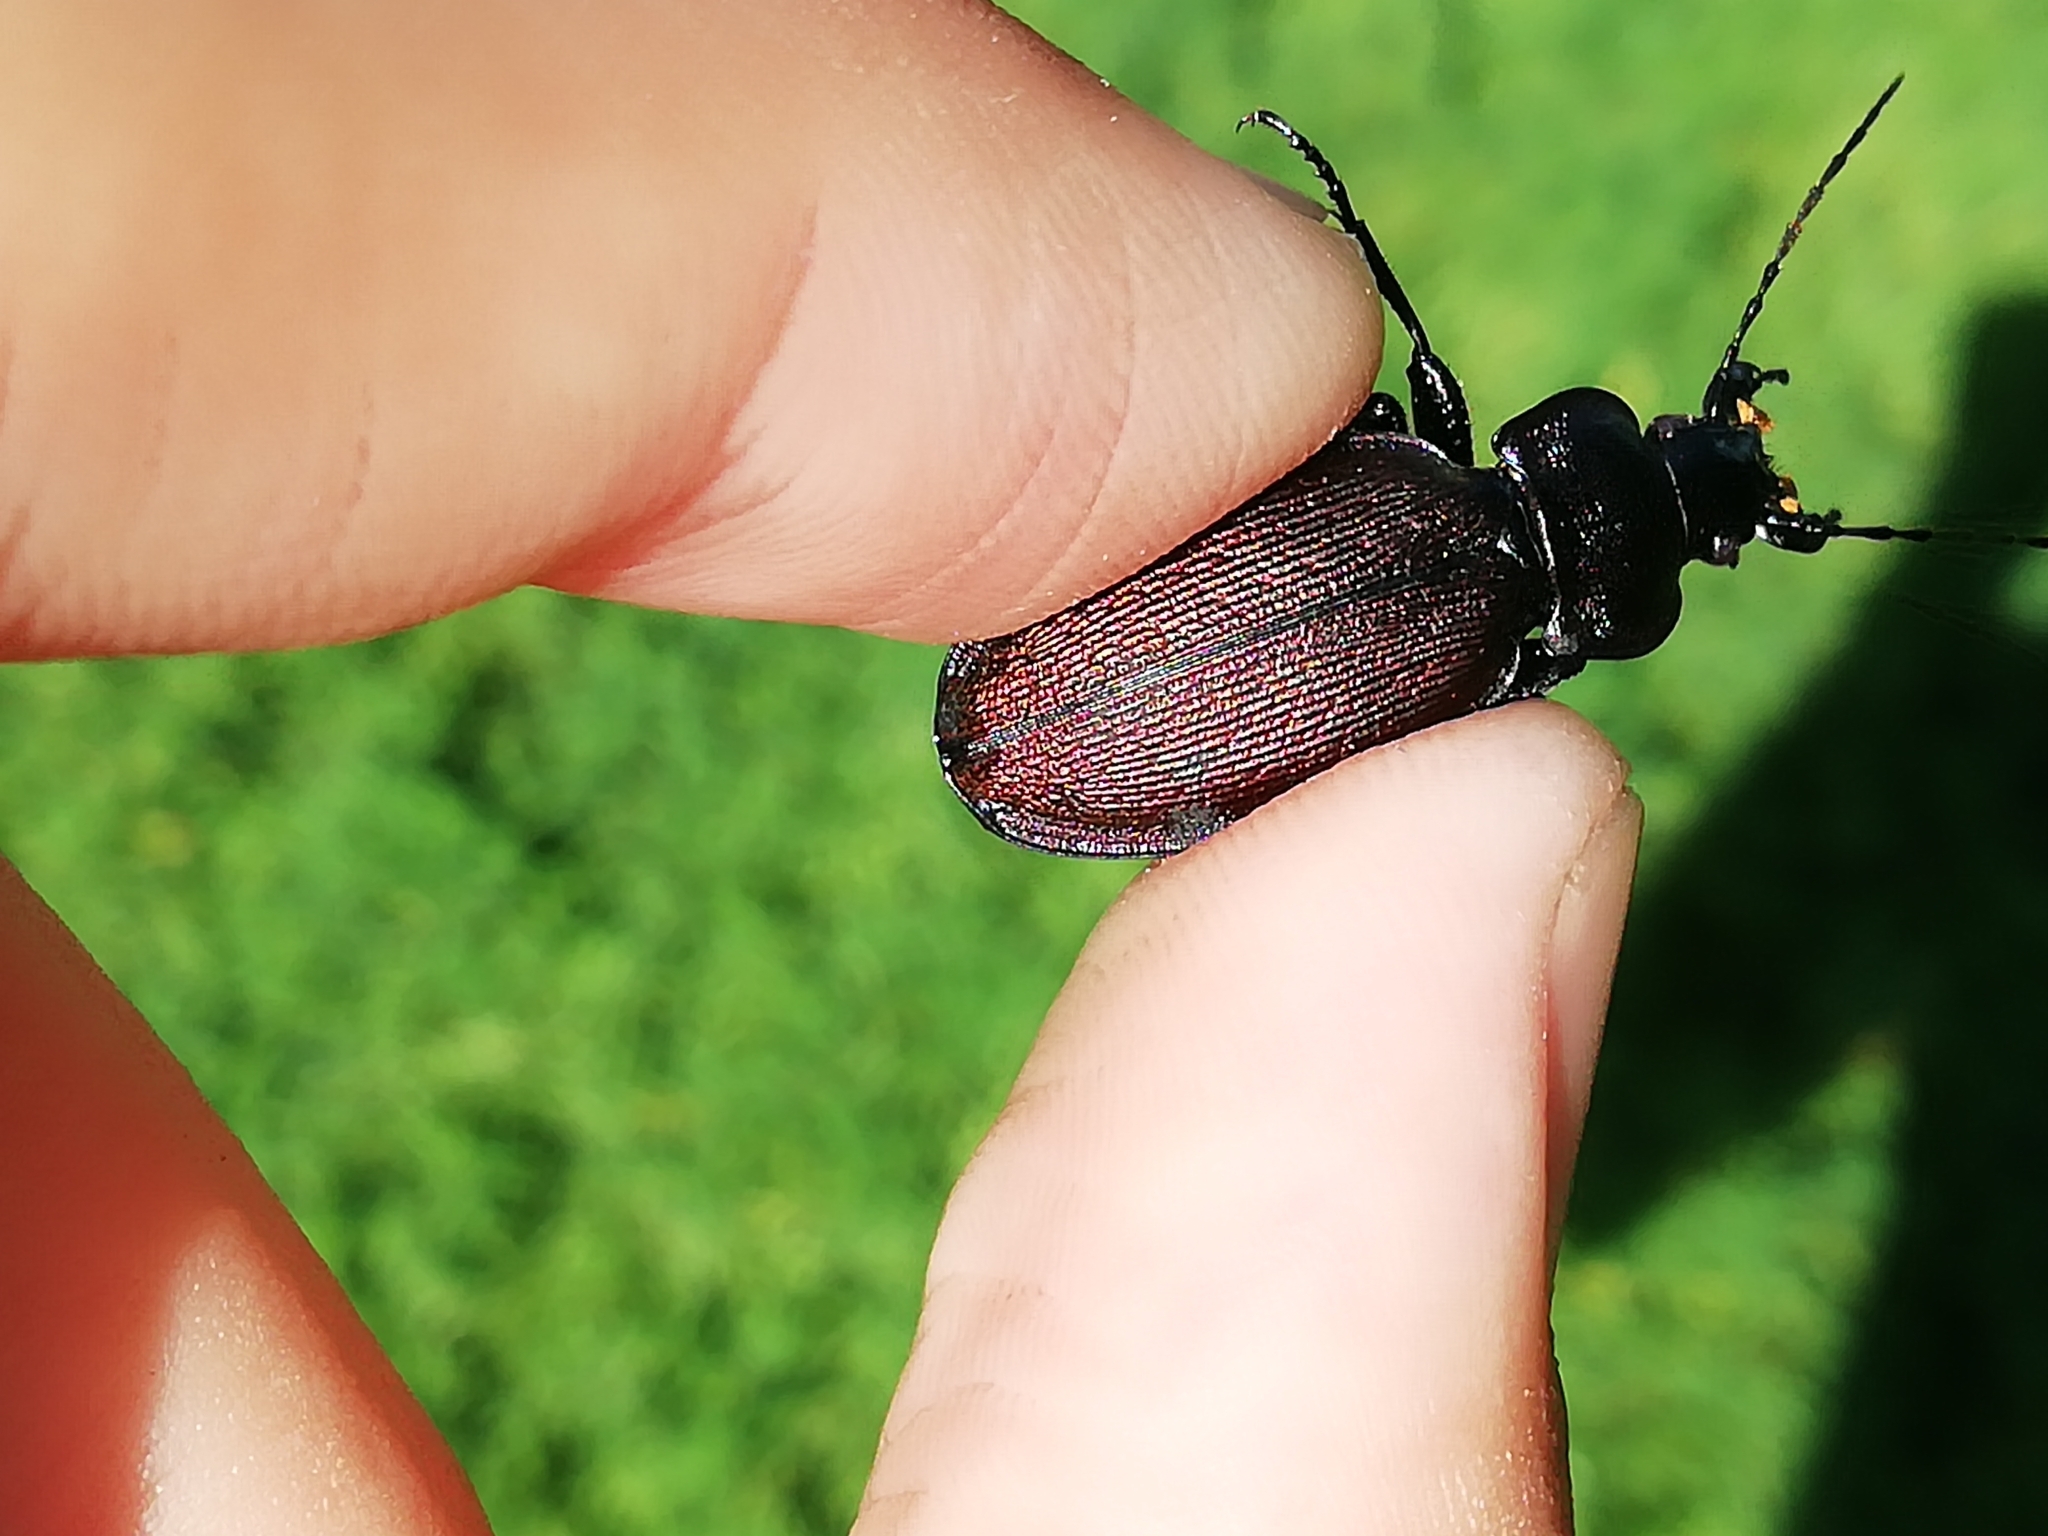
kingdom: Animalia
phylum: Arthropoda
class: Insecta
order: Coleoptera
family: Carabidae
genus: Carabus
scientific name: Carabus regalis
